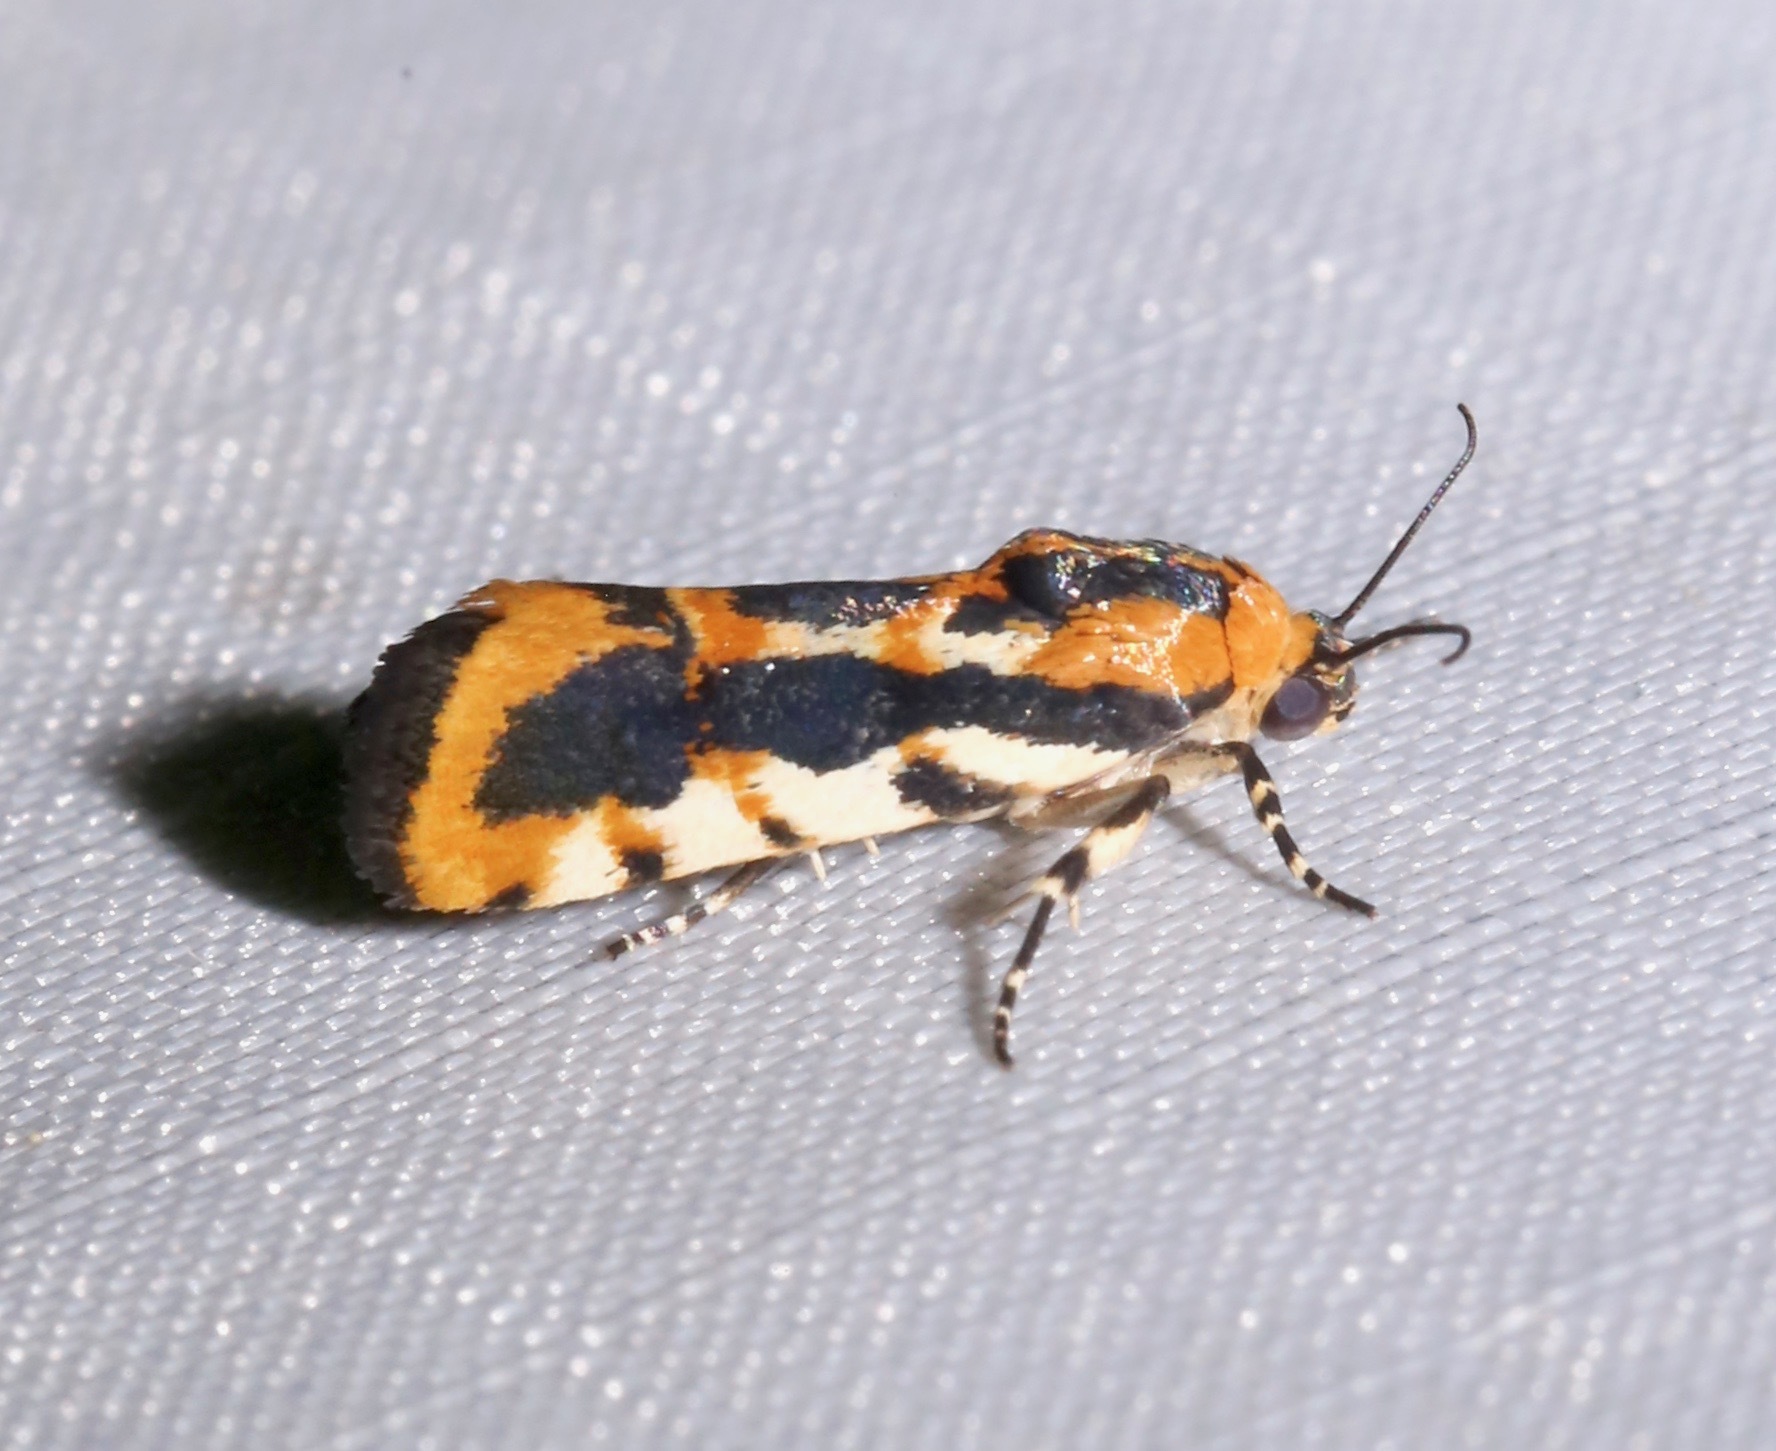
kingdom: Animalia
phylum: Arthropoda
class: Insecta
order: Lepidoptera
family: Noctuidae
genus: Acontia
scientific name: Acontia leo
